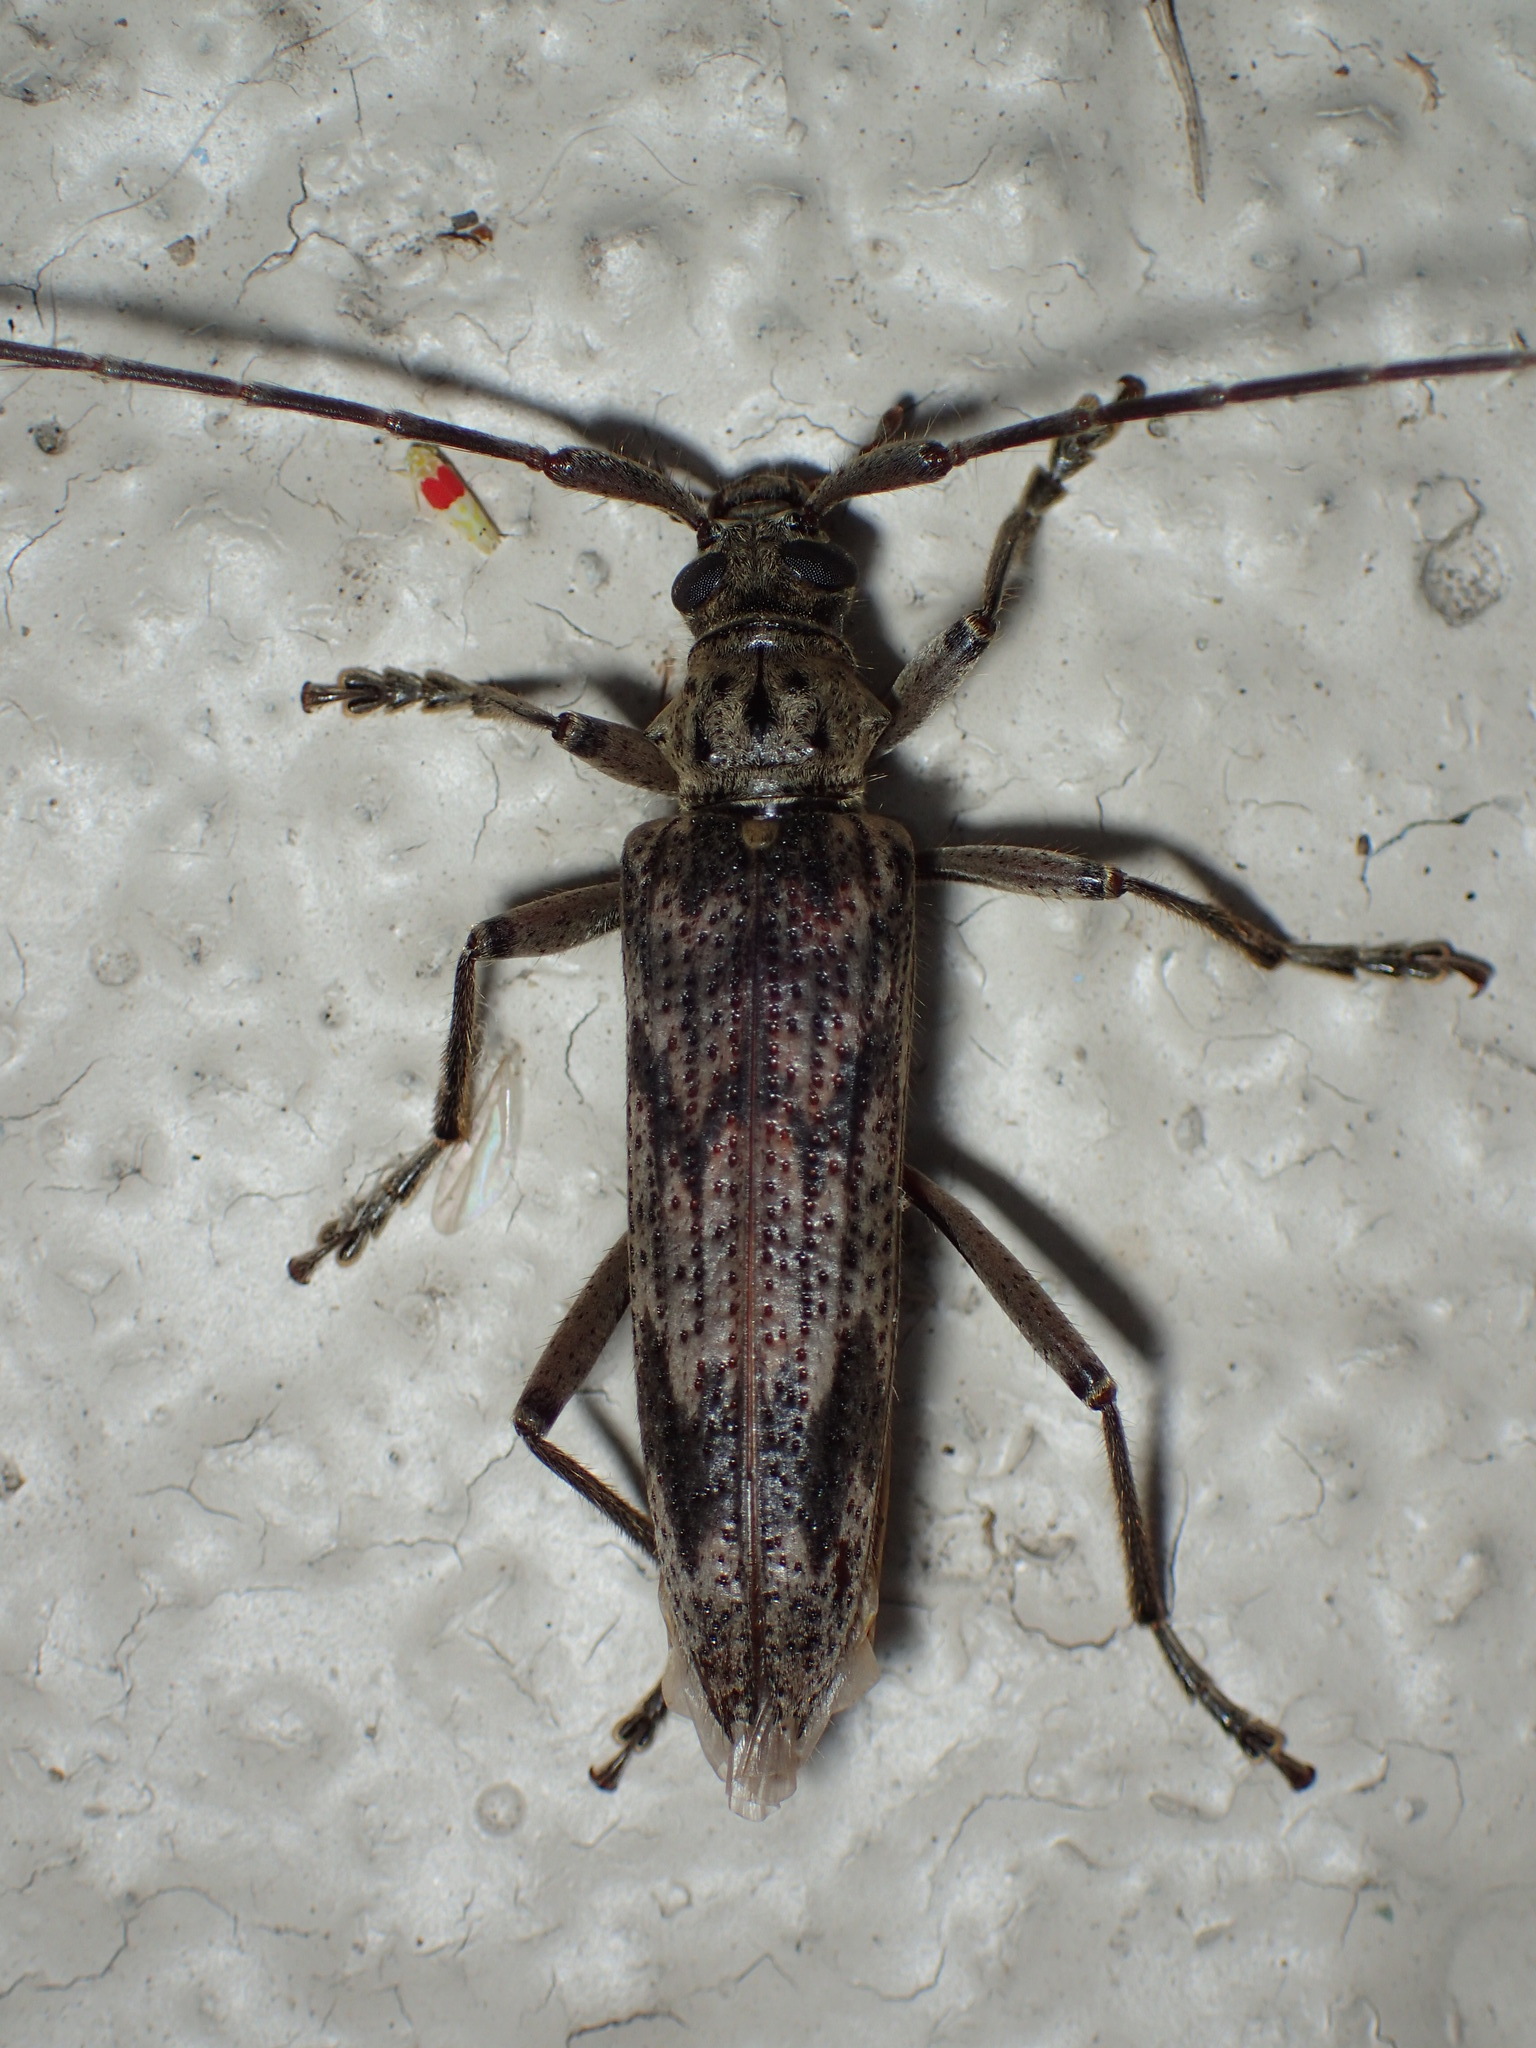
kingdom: Animalia
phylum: Arthropoda
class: Insecta
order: Coleoptera
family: Cerambycidae
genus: Elytrimitatrix
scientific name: Elytrimitatrix undata
